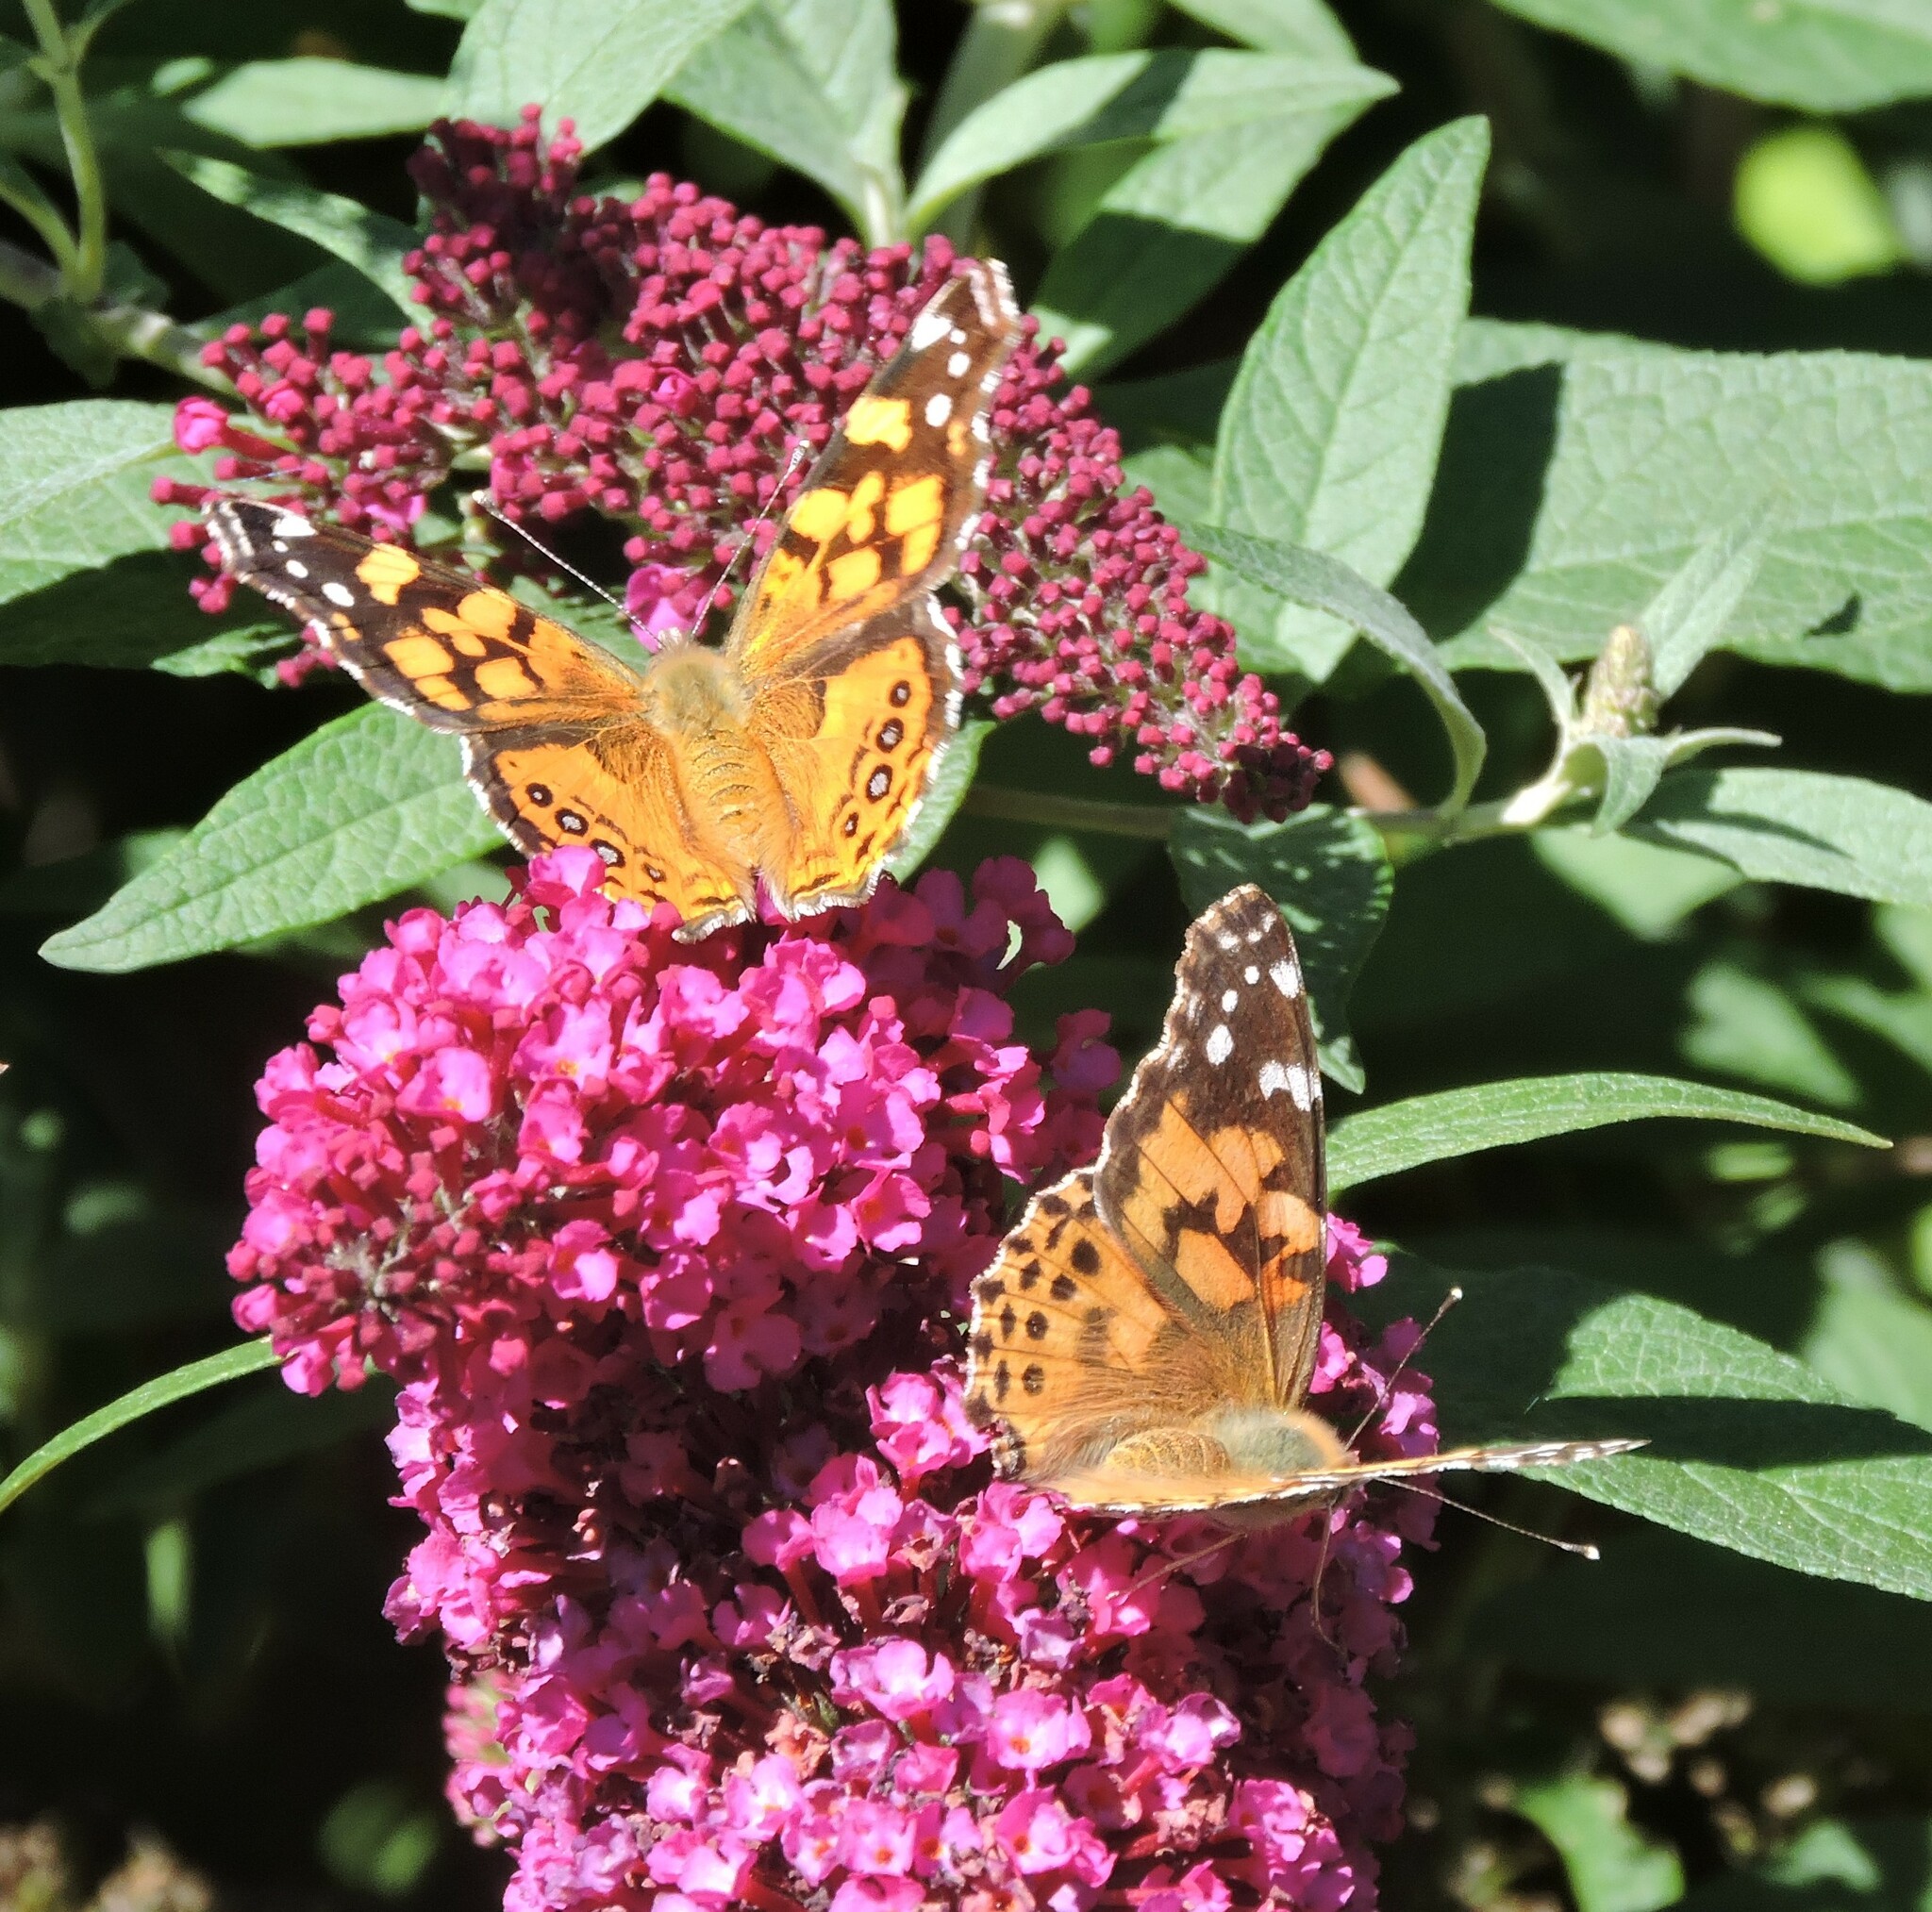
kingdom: Animalia
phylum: Arthropoda
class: Insecta
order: Lepidoptera
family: Nymphalidae
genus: Vanessa
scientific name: Vanessa annabella
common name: West coast lady
